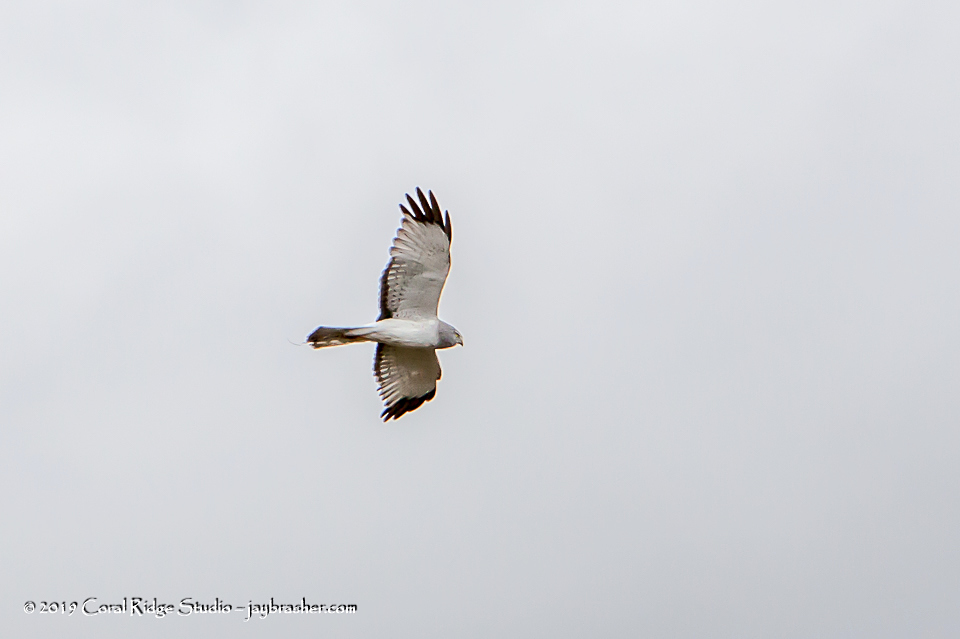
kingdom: Animalia
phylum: Chordata
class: Aves
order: Accipitriformes
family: Accipitridae
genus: Circus
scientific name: Circus cyaneus
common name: Hen harrier
